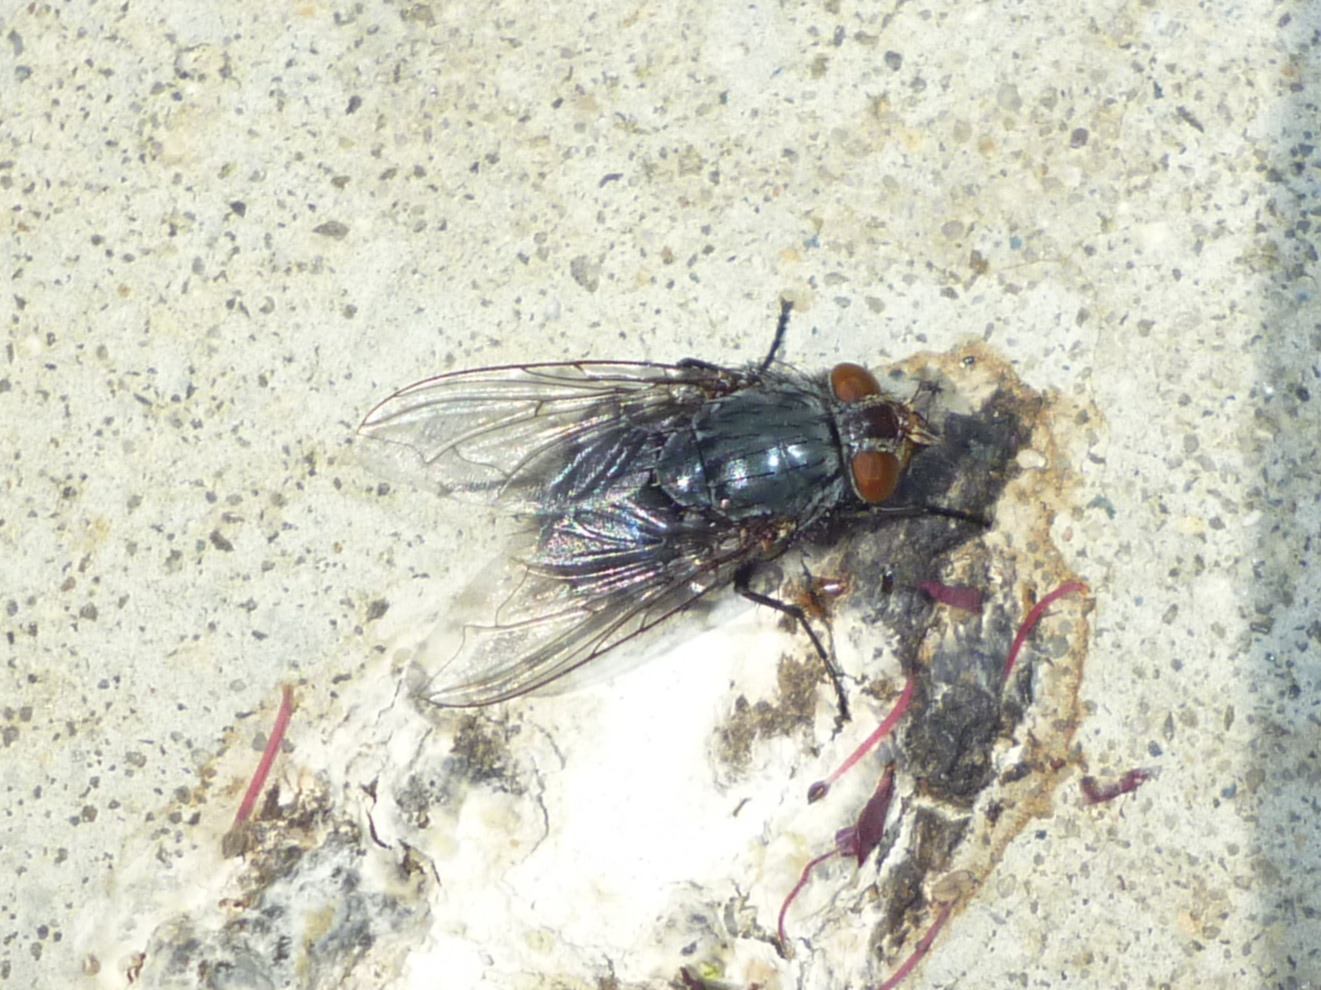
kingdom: Animalia
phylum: Arthropoda
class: Insecta
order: Diptera
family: Calliphoridae
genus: Calliphora
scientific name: Calliphora vicina
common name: Common blow flie
